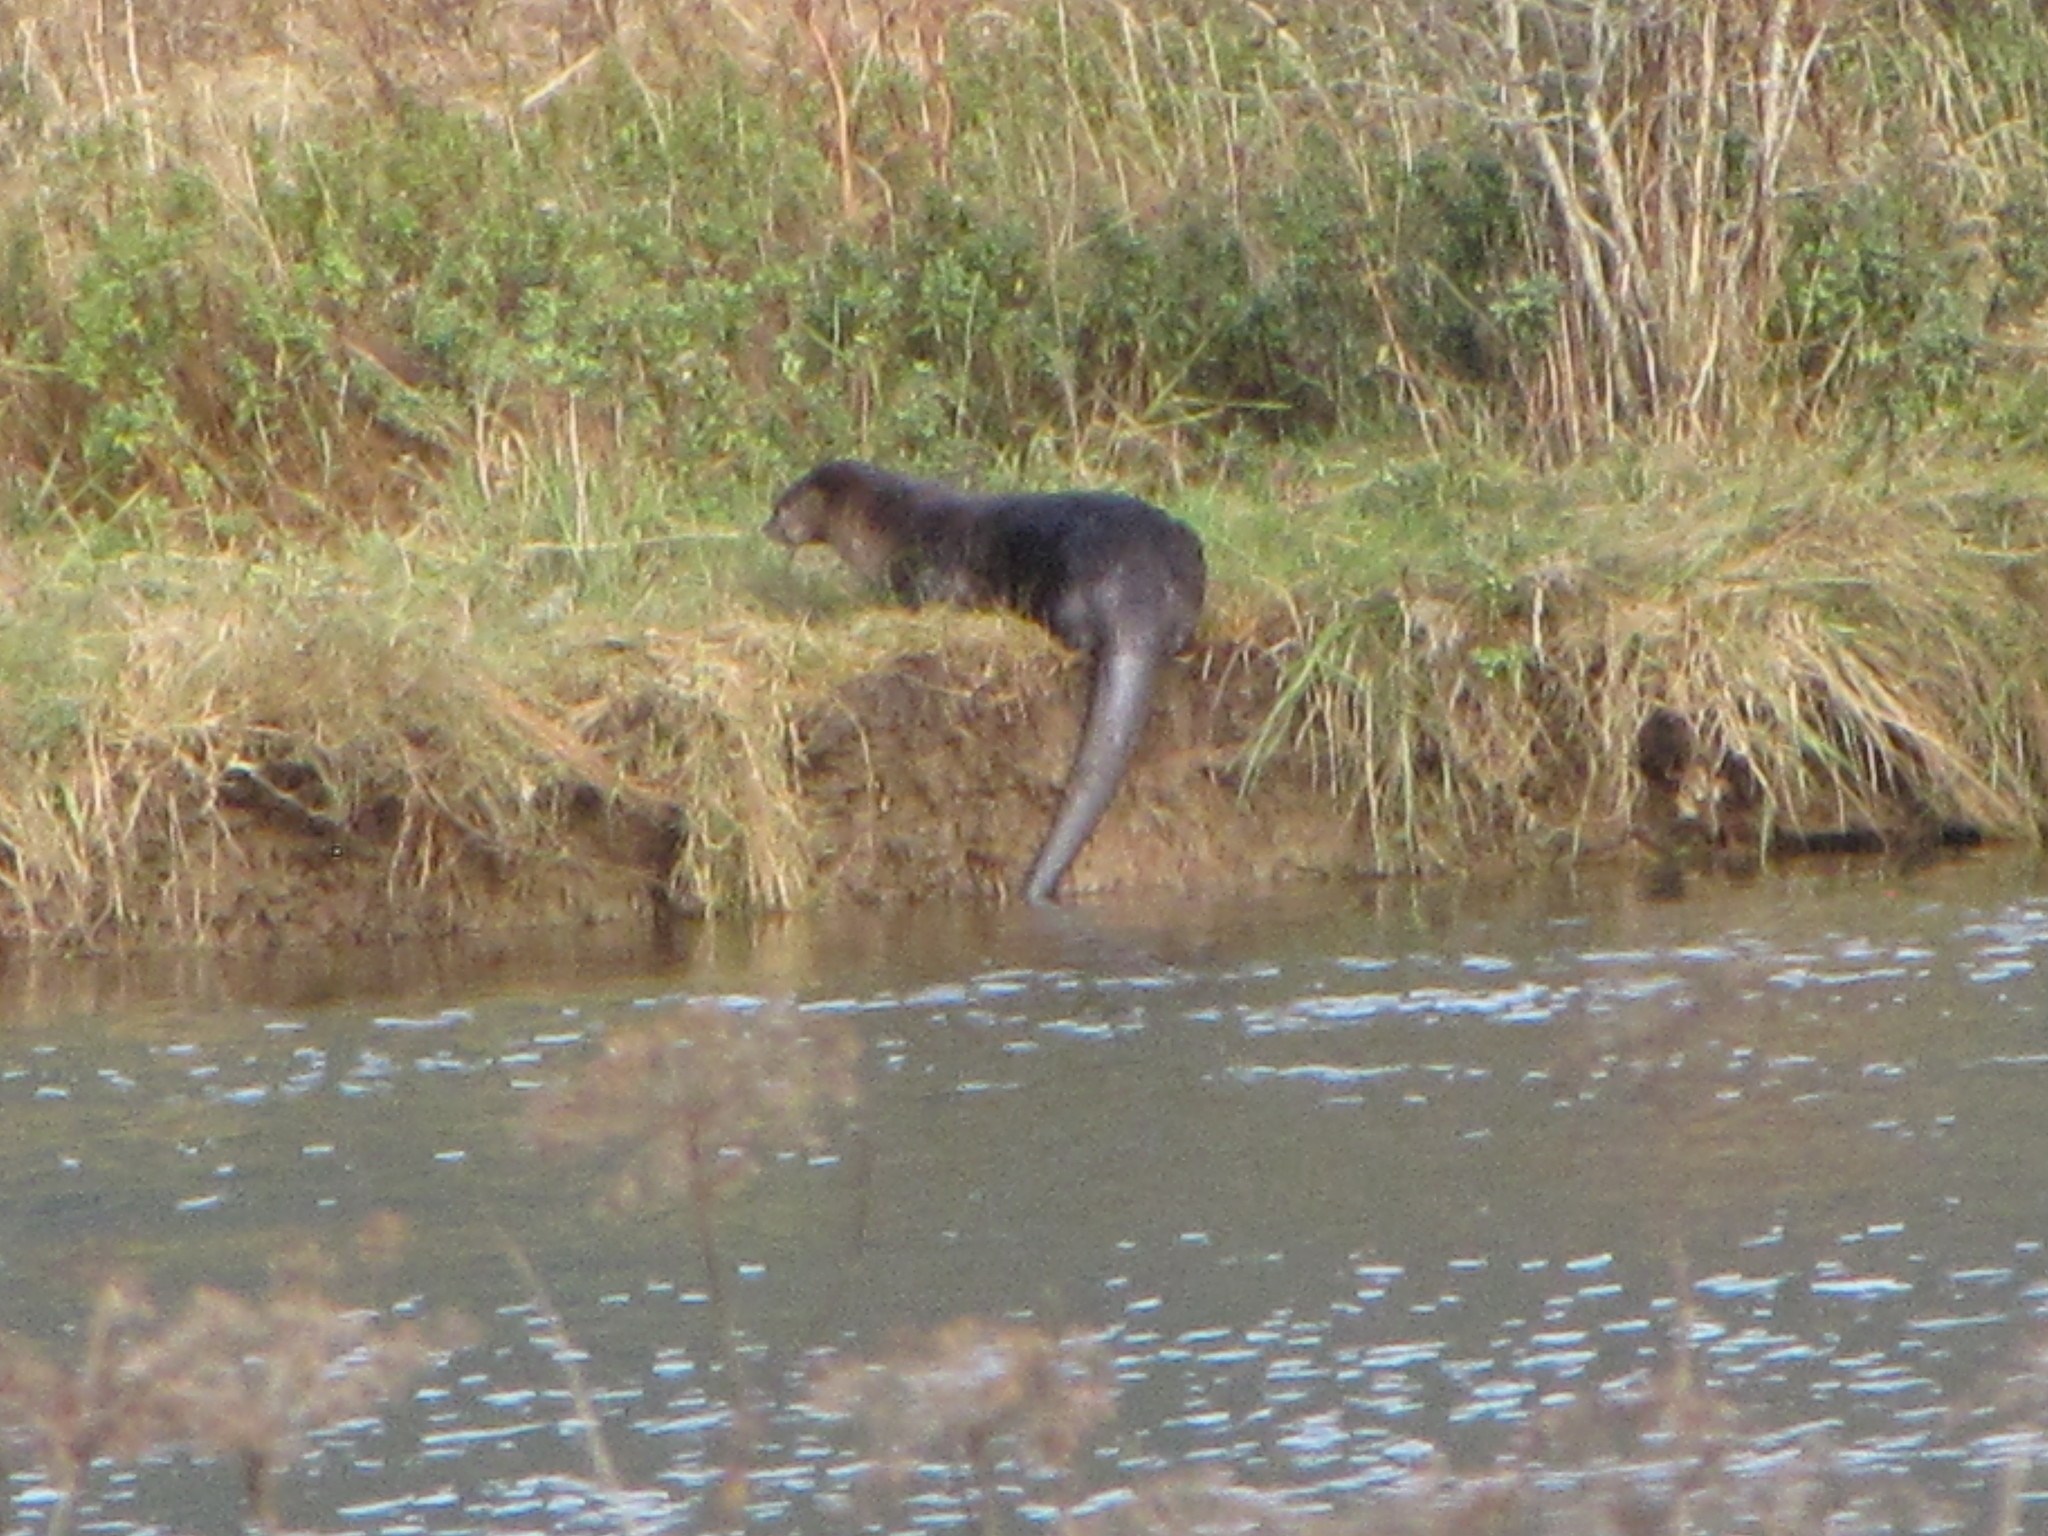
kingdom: Animalia
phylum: Chordata
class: Mammalia
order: Carnivora
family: Mustelidae
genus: Lontra
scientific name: Lontra canadensis
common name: North american river otter
